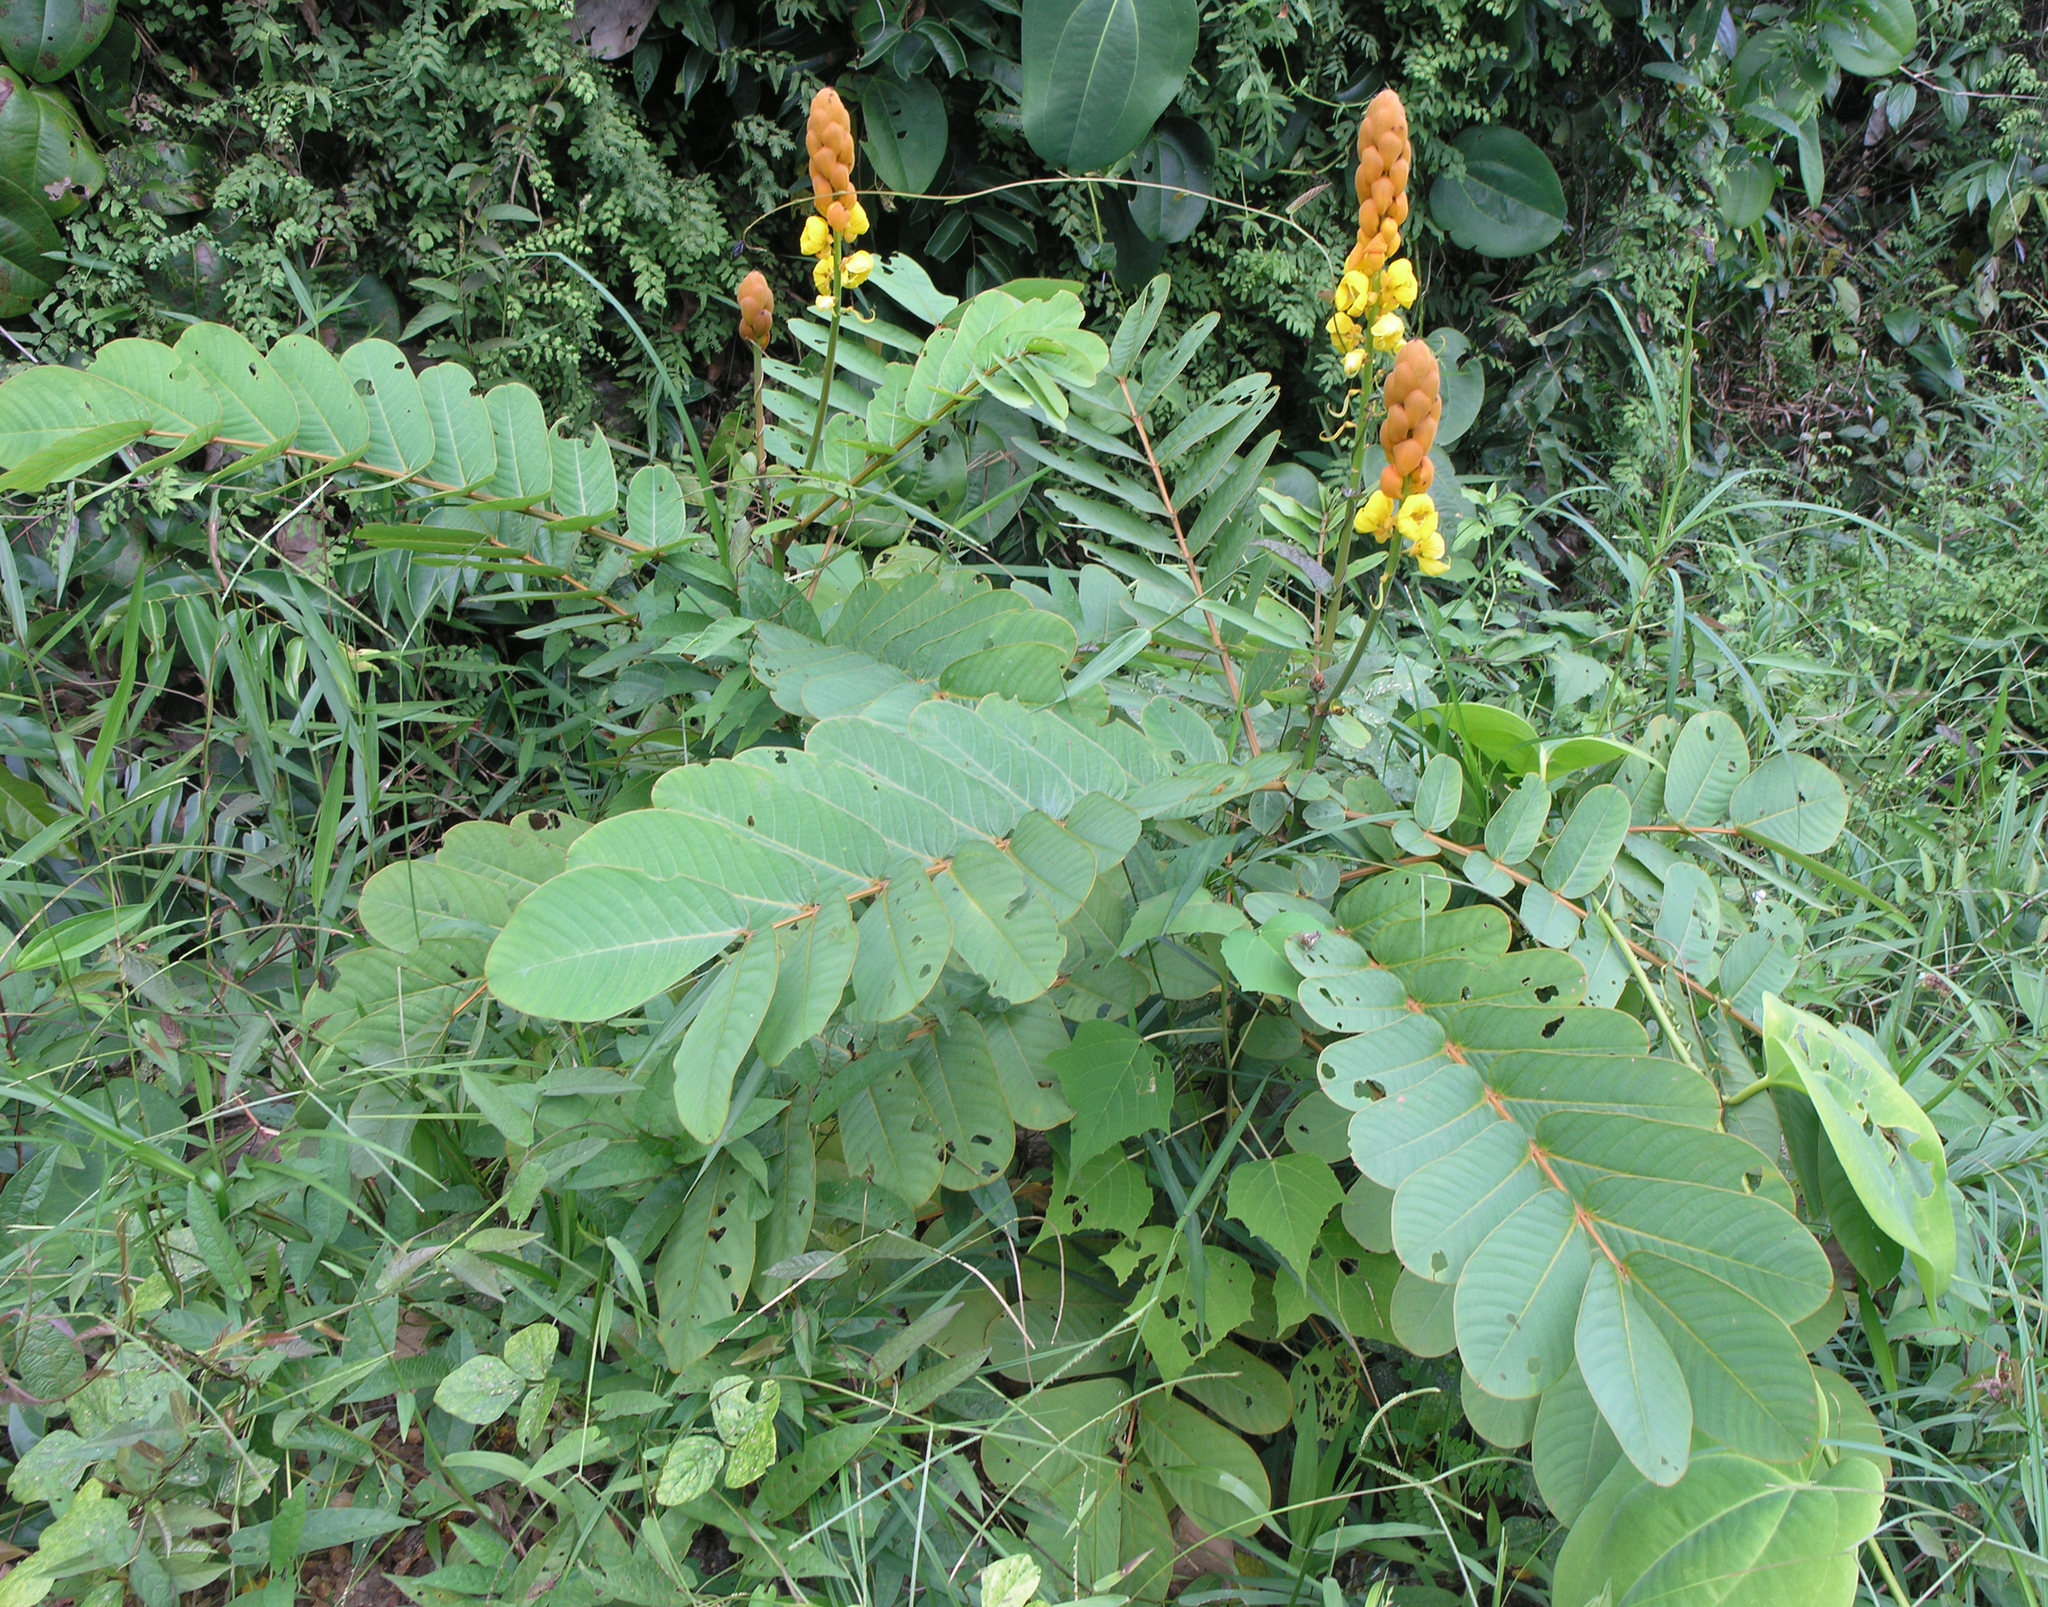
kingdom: Plantae
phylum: Tracheophyta
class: Magnoliopsida
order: Fabales
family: Fabaceae
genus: Senna
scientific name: Senna alata
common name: Emperor's candlesticks
